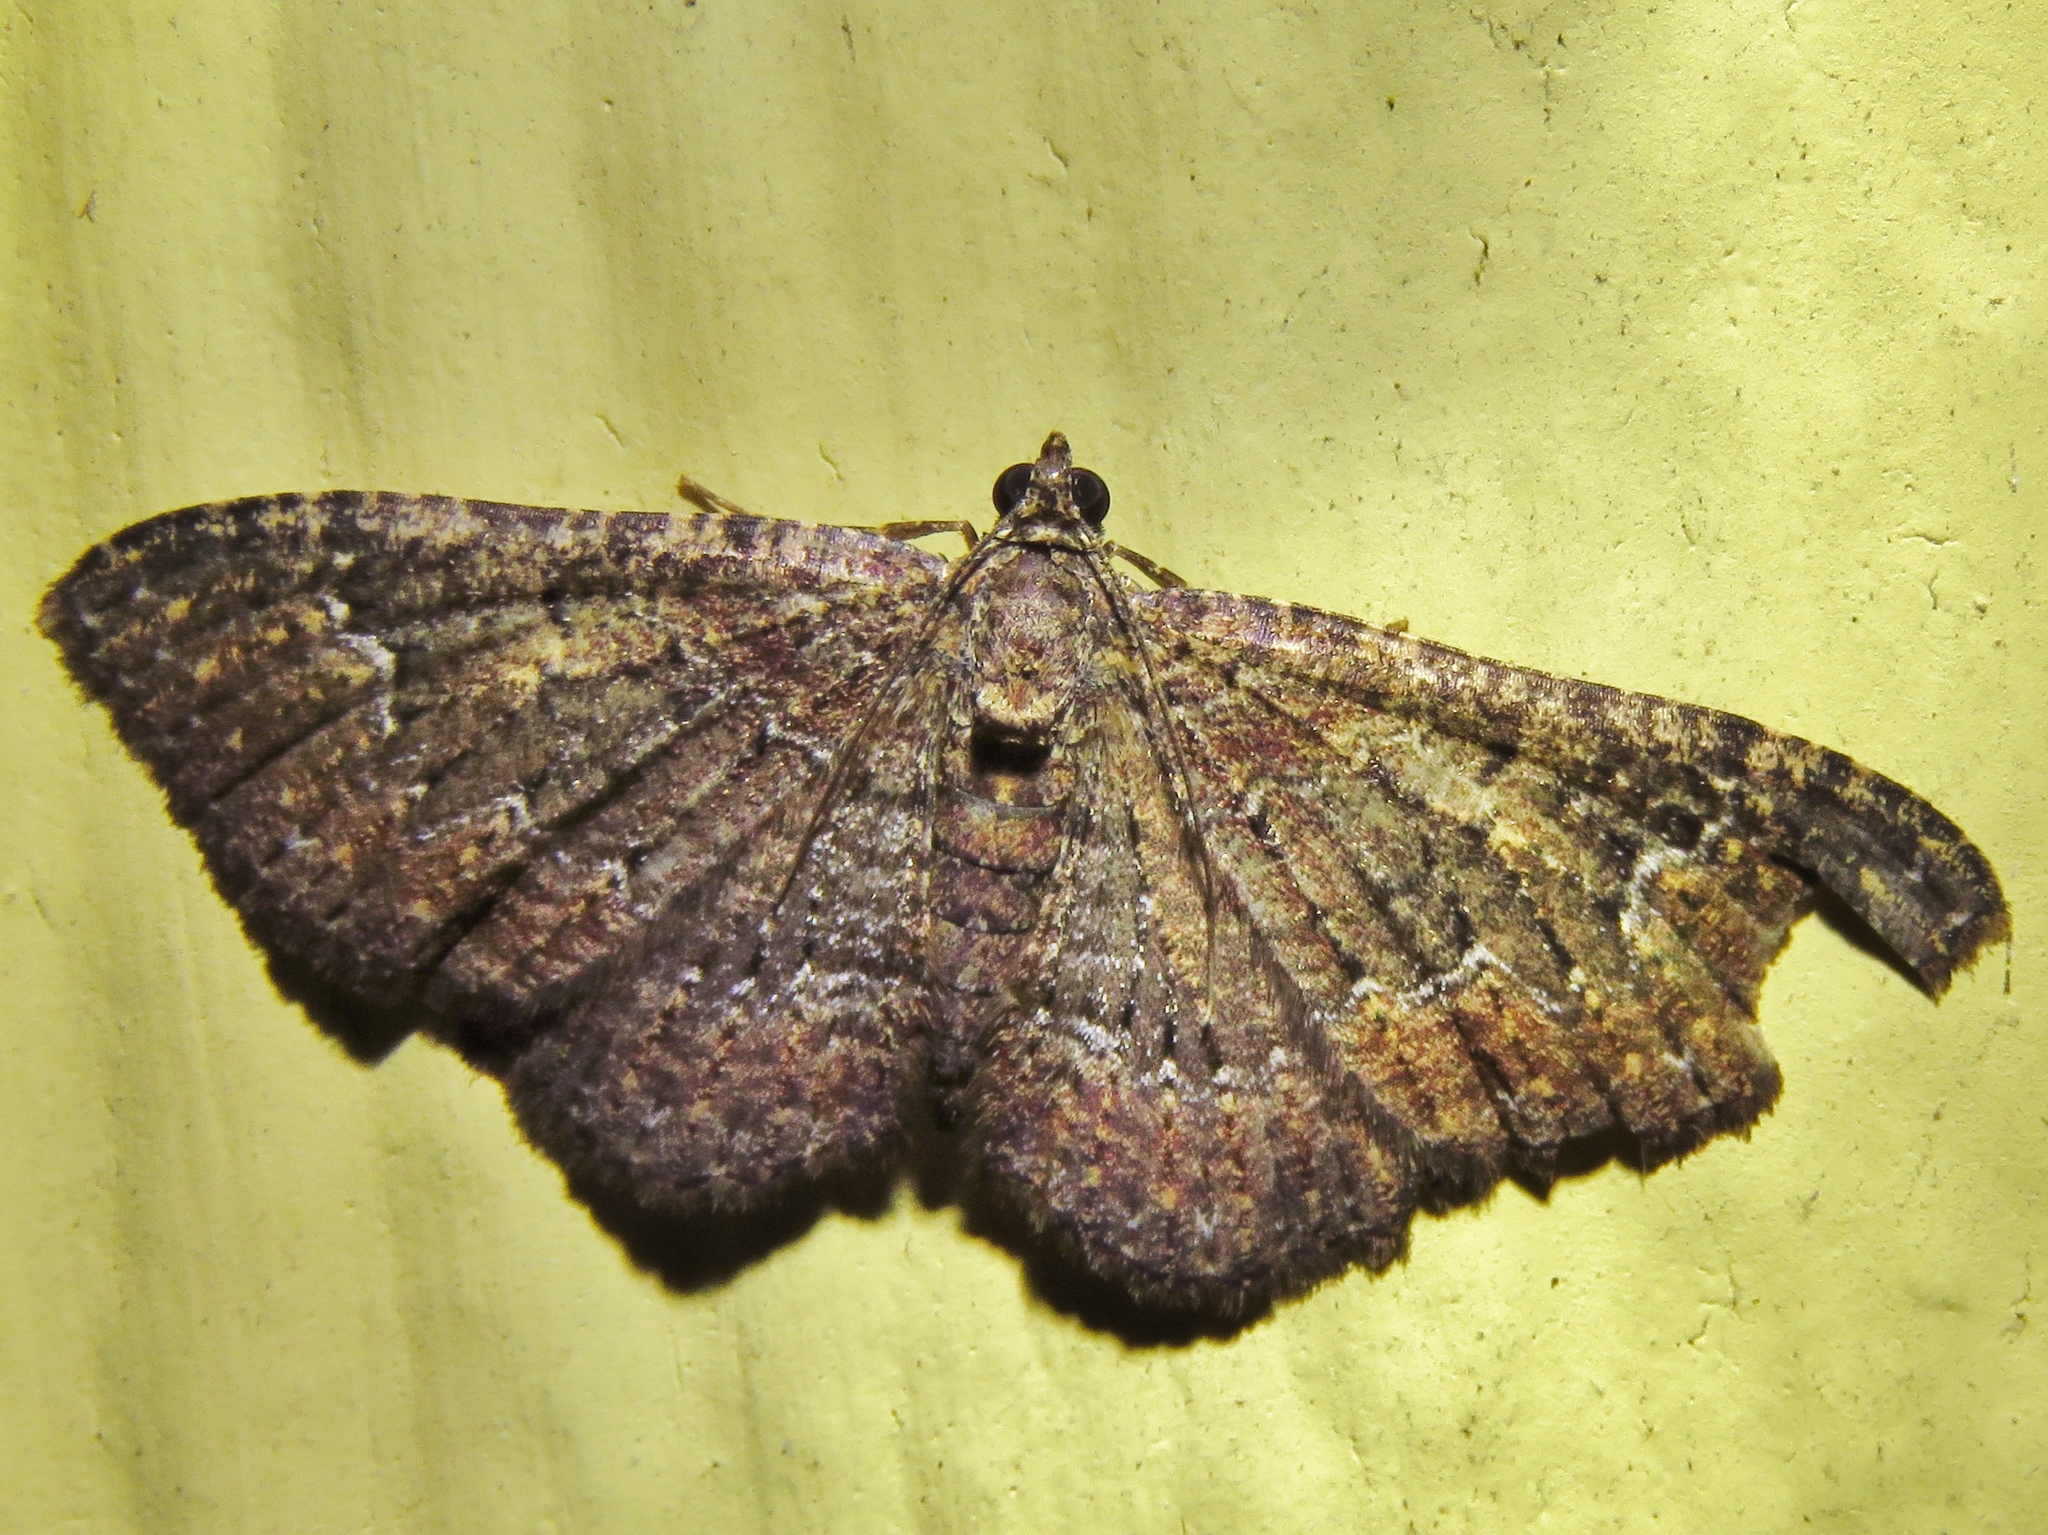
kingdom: Animalia
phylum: Arthropoda
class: Insecta
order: Lepidoptera
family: Geometridae
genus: Disclisioprocta
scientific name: Disclisioprocta stellata
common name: Somber carpet
